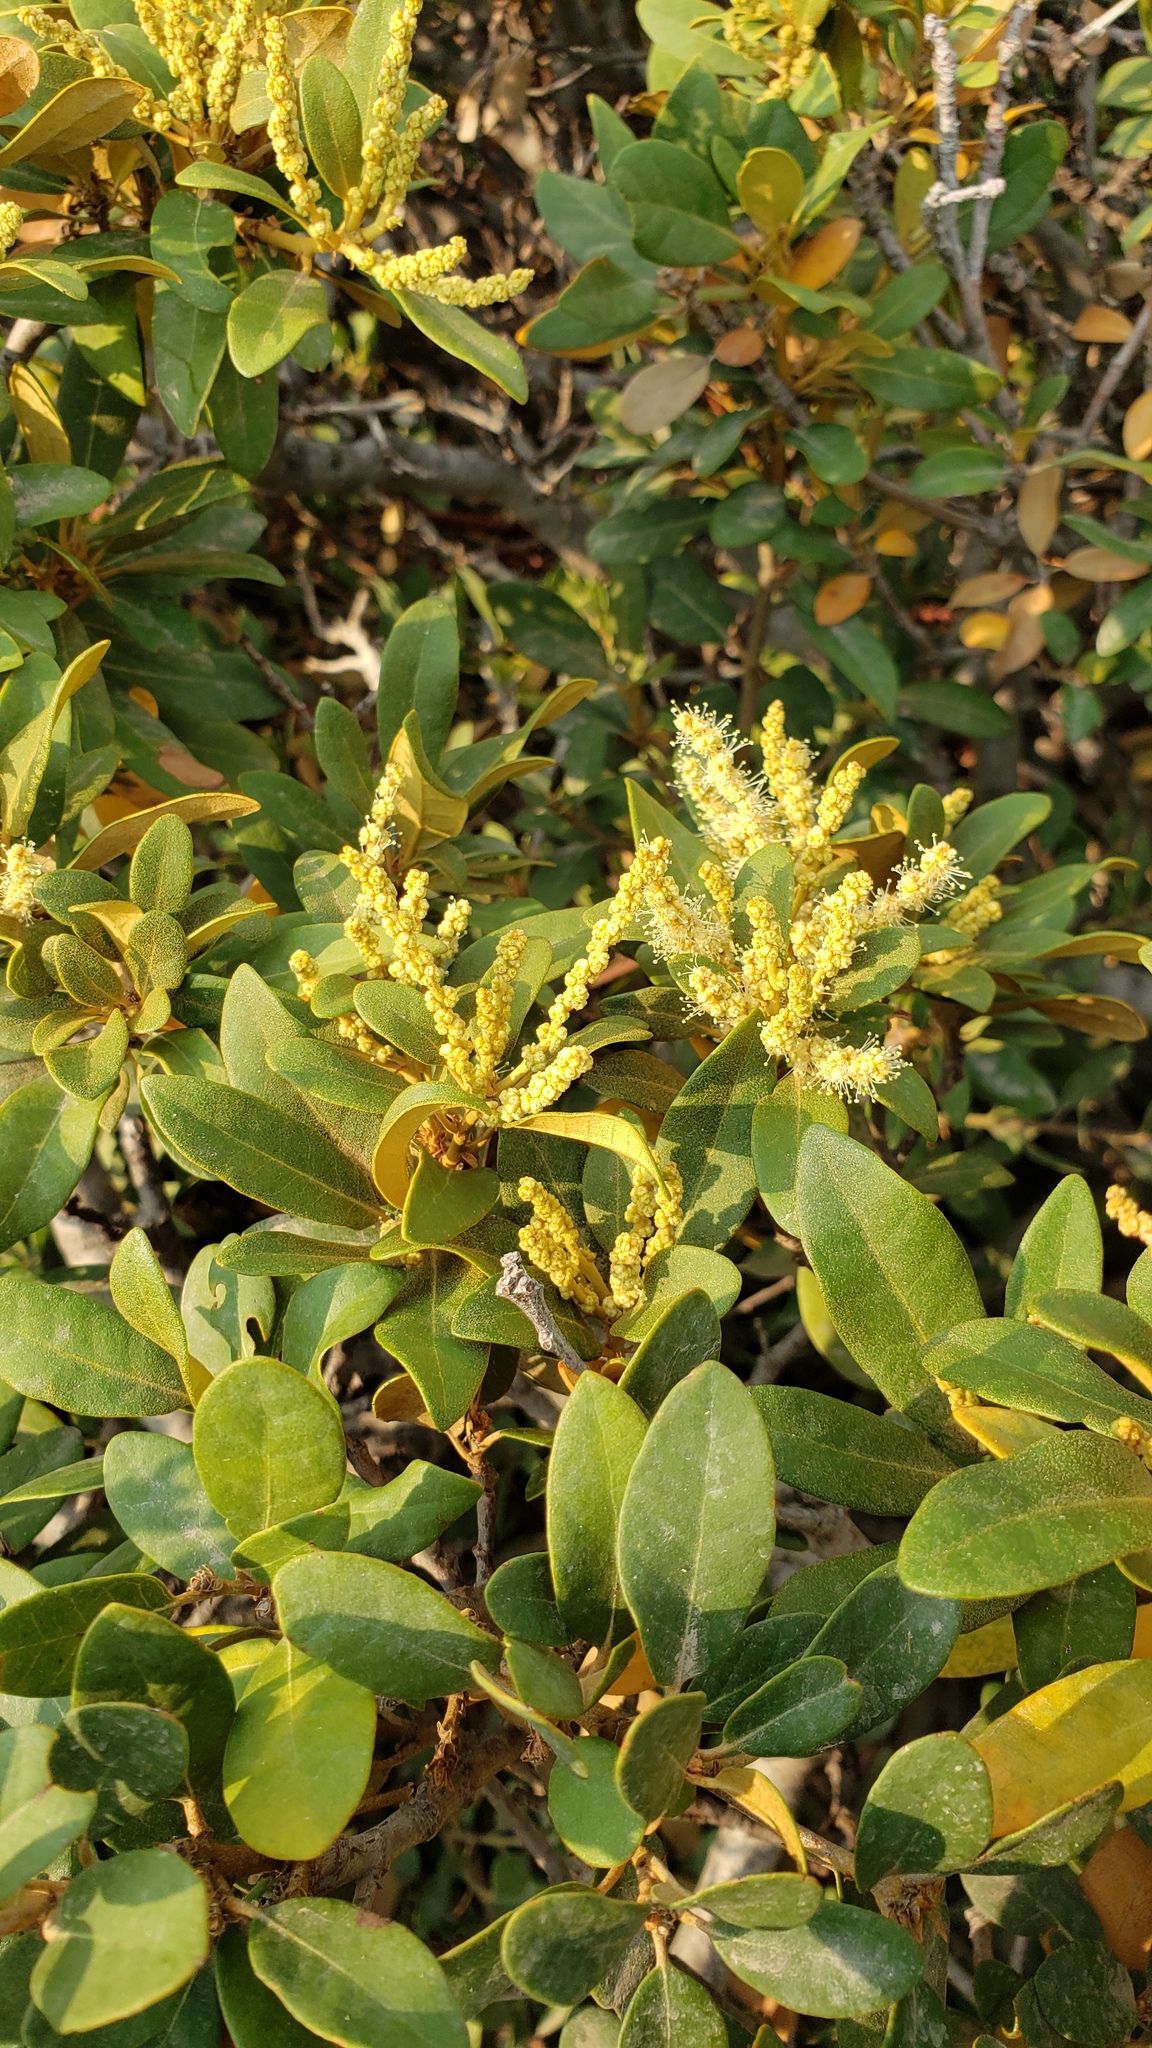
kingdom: Plantae
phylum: Tracheophyta
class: Magnoliopsida
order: Fagales
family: Fagaceae
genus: Chrysolepis
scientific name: Chrysolepis sempervirens
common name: Bush chinquapin
